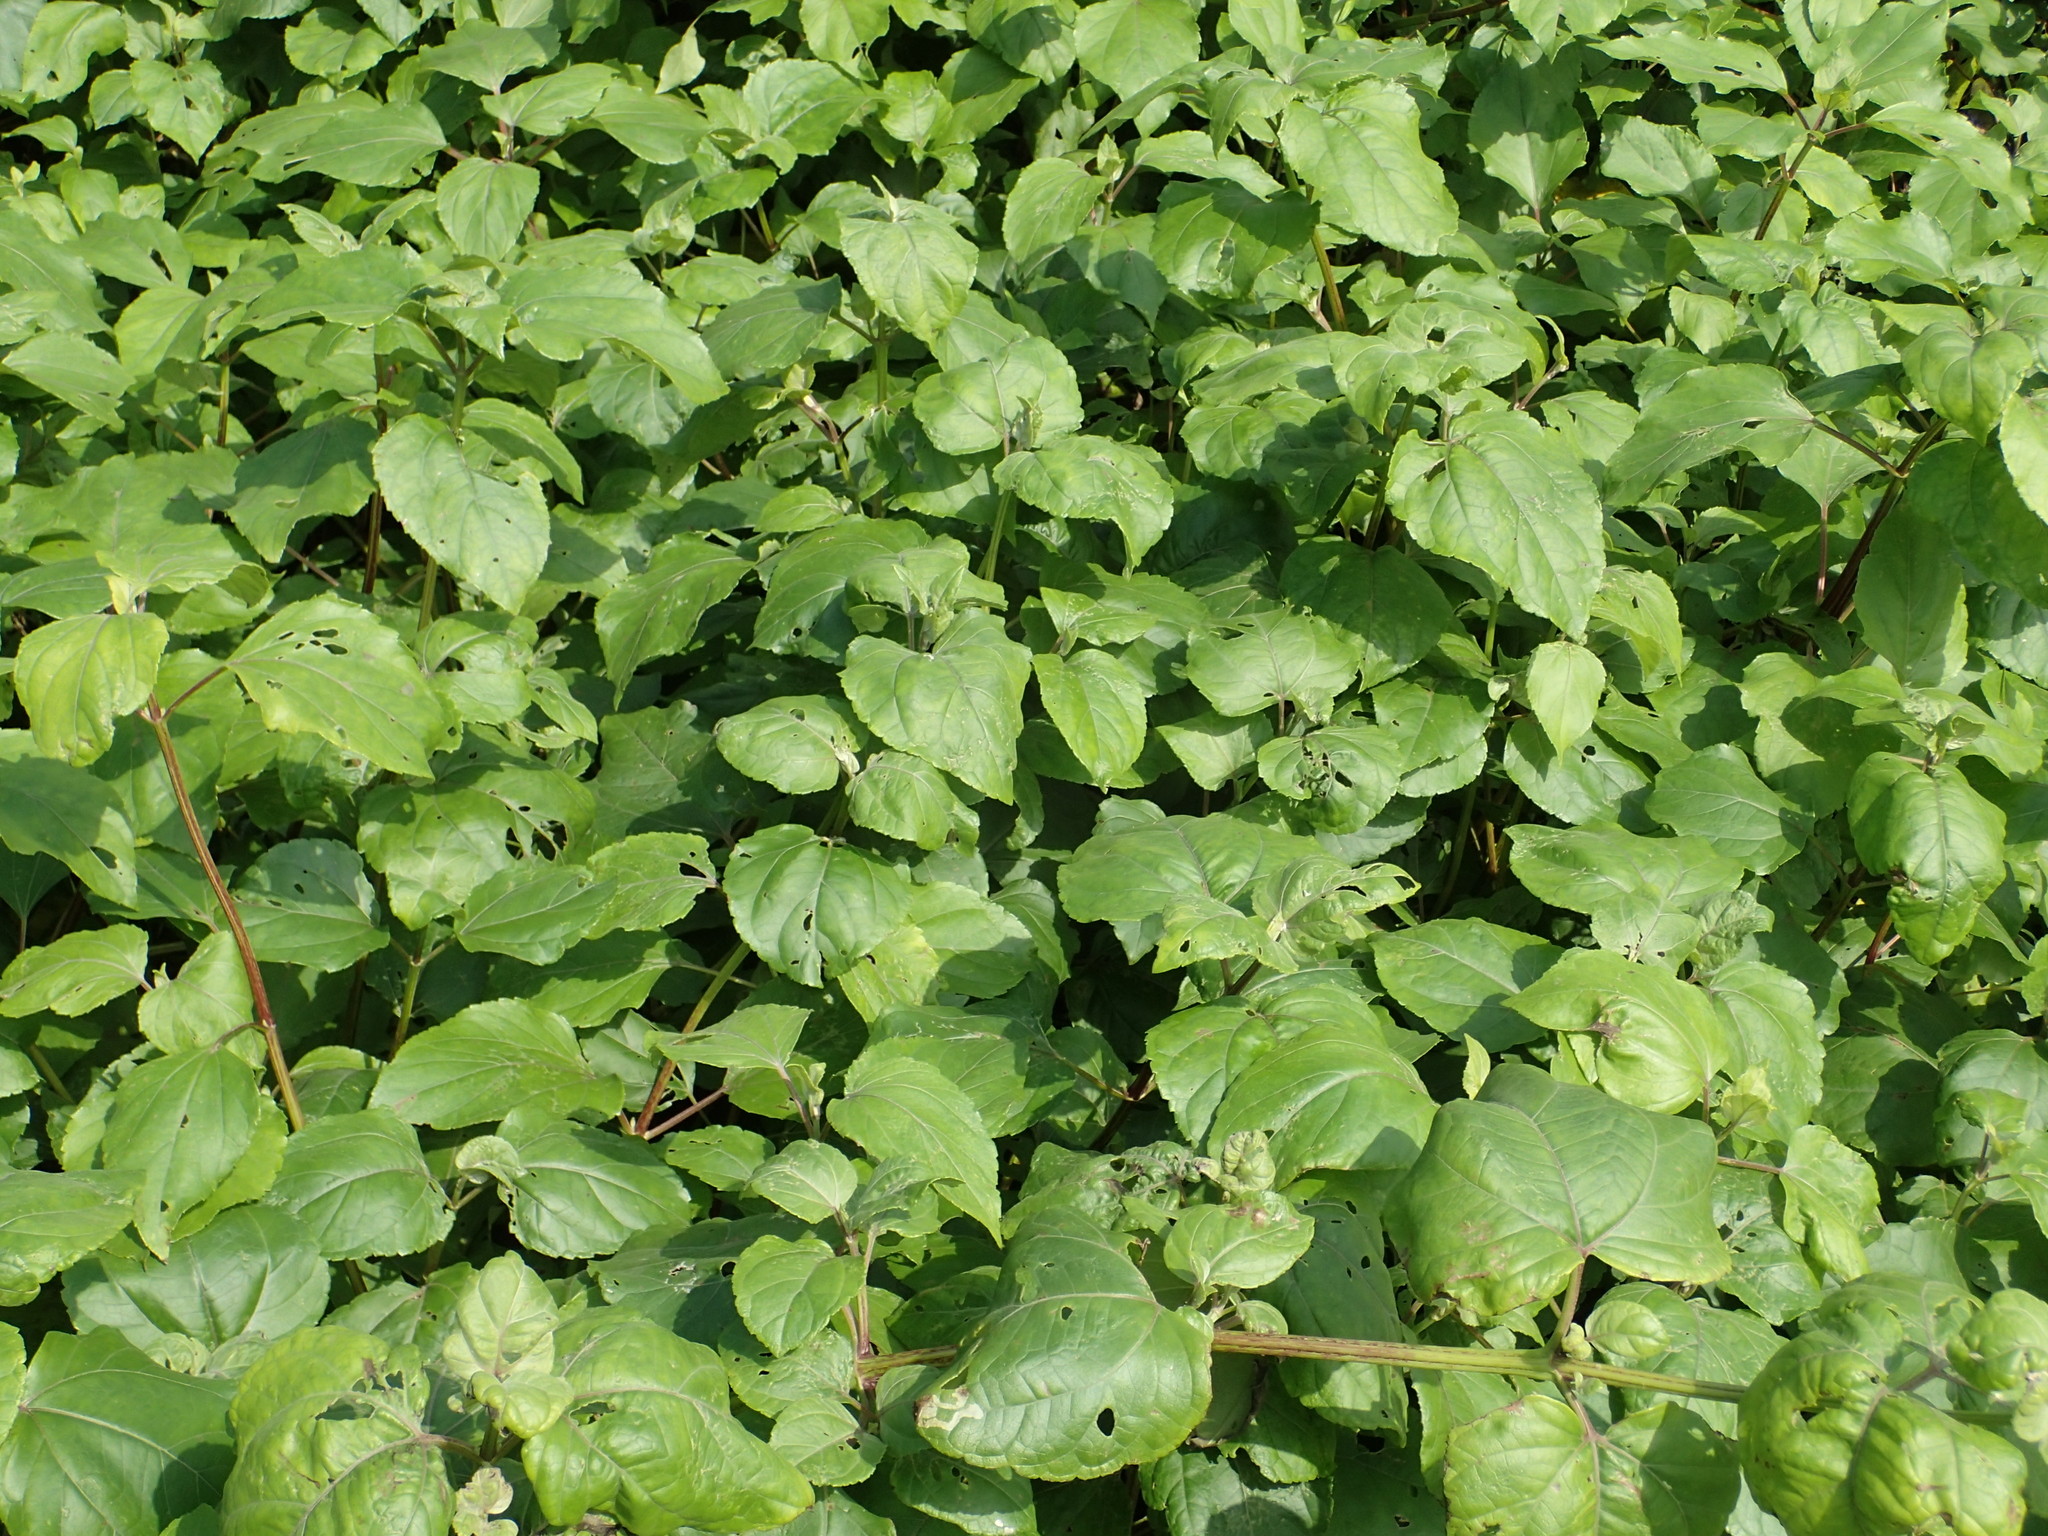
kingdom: Plantae
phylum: Tracheophyta
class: Magnoliopsida
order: Asterales
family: Asteraceae
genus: Wollastonia
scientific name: Wollastonia biflora
